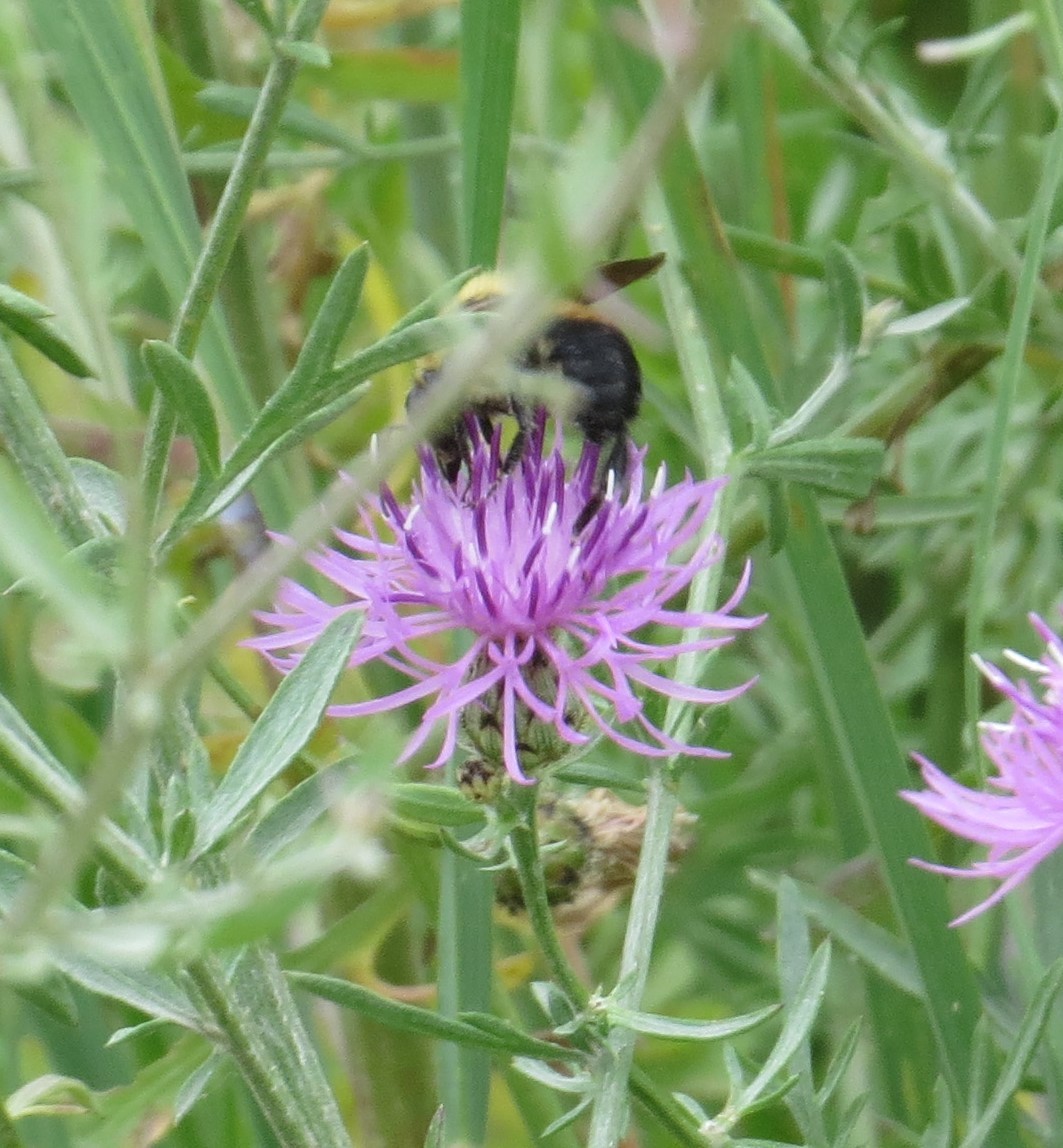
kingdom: Animalia
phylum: Arthropoda
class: Insecta
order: Hymenoptera
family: Apidae
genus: Bombus
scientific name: Bombus griseocollis
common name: Brown-belted bumble bee
